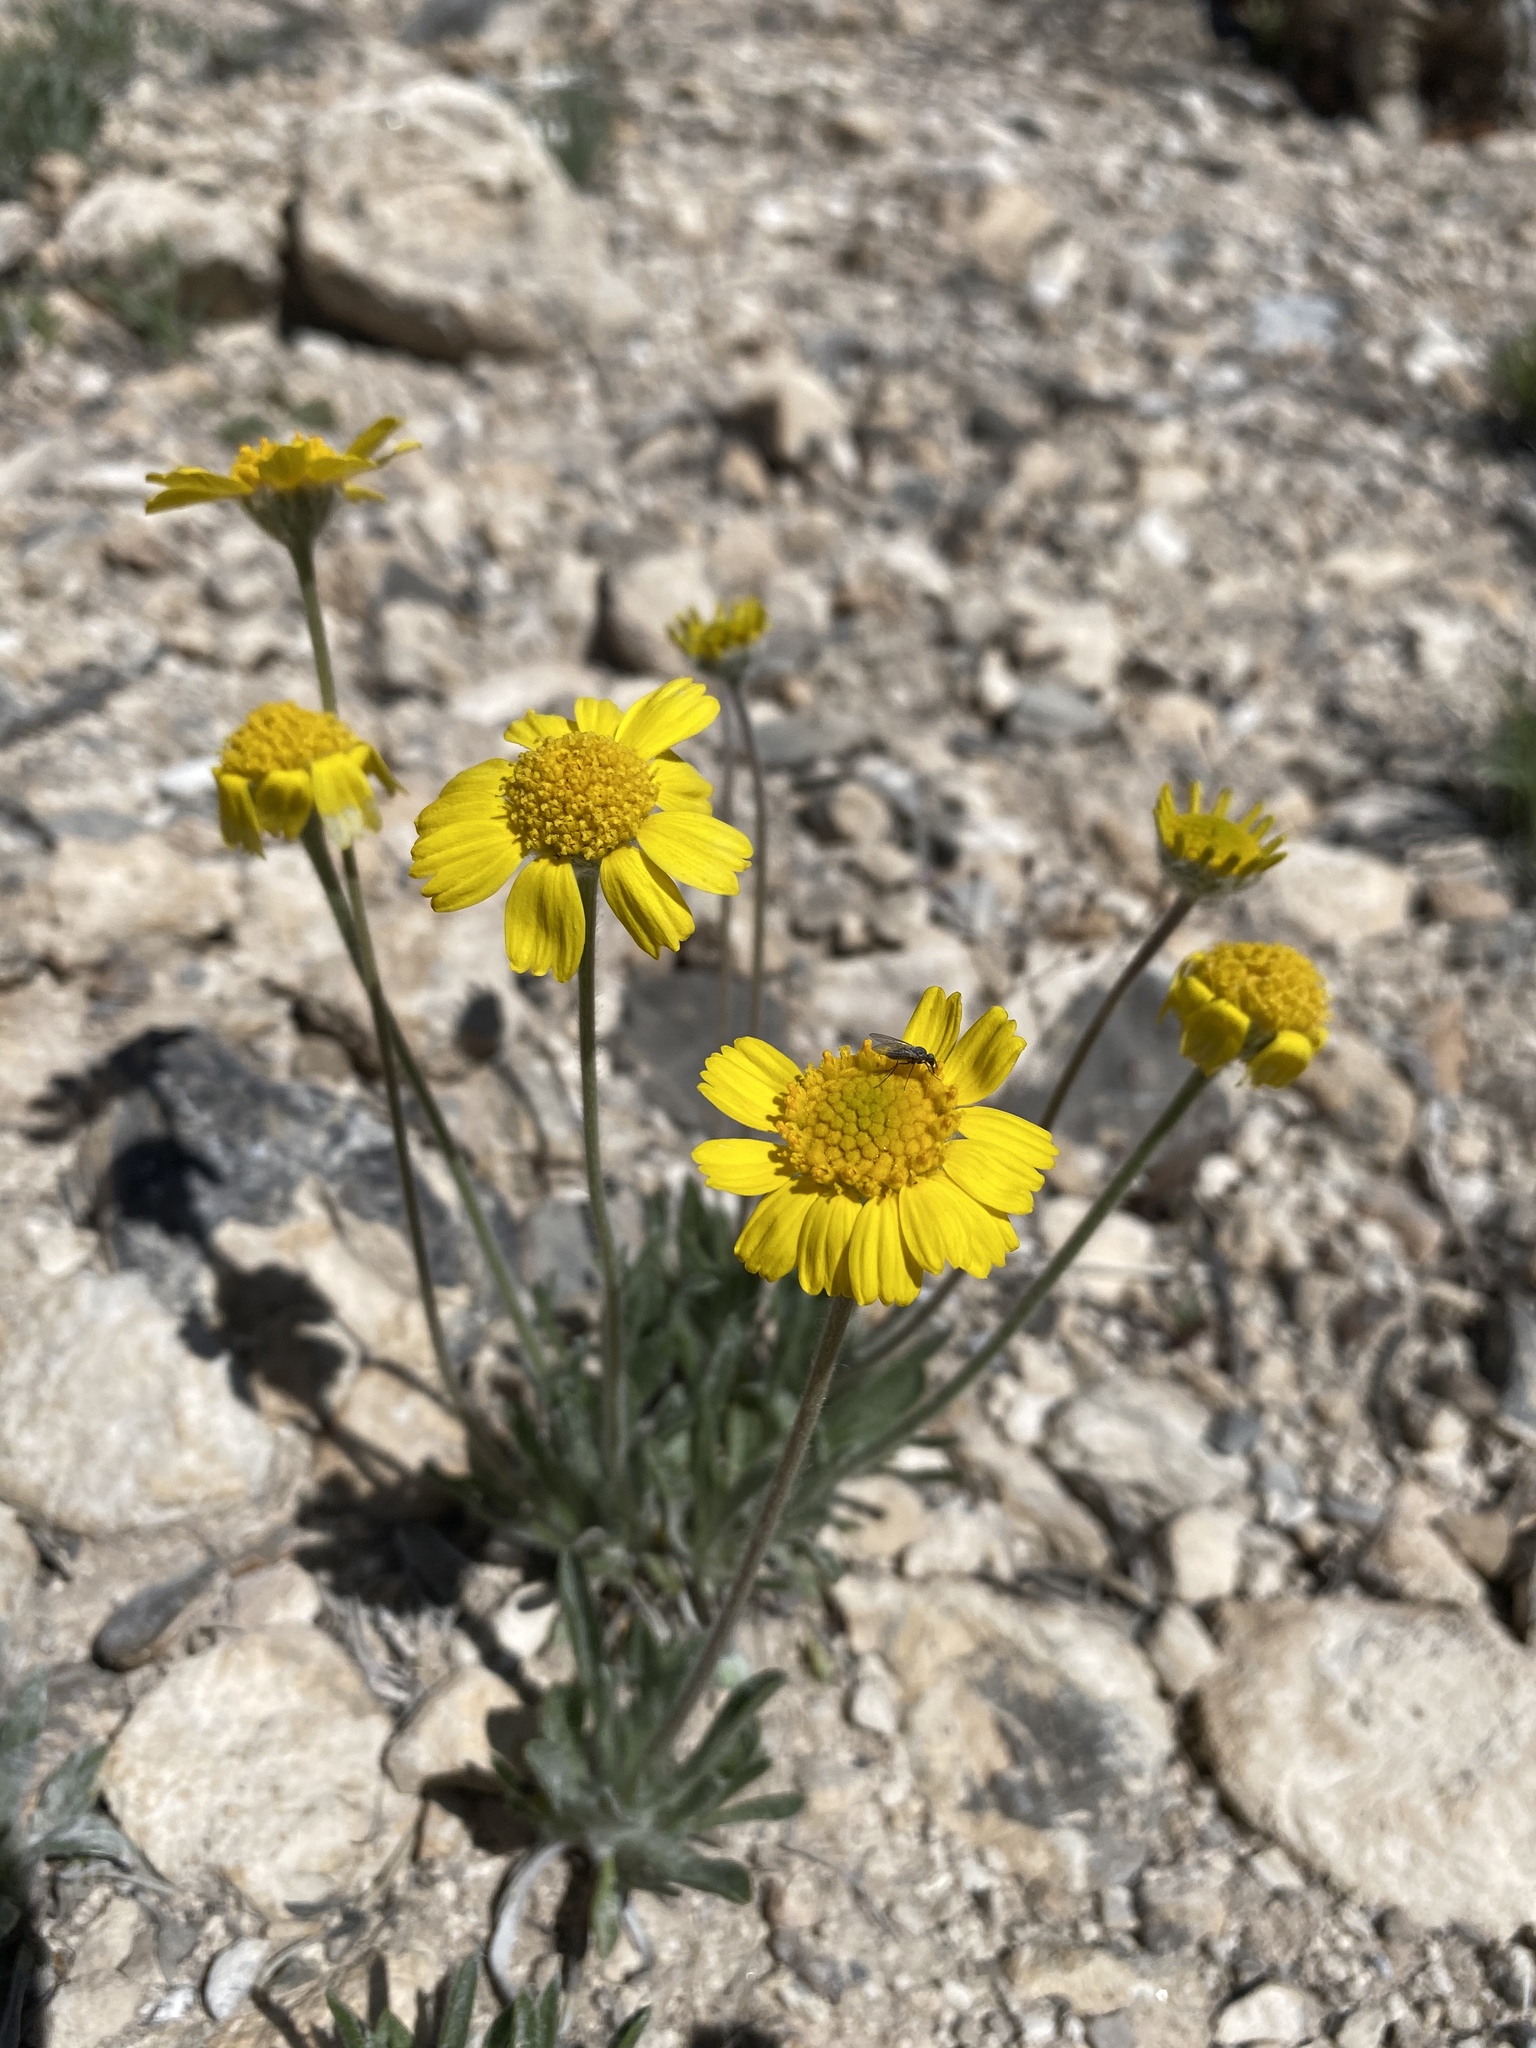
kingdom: Plantae
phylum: Tracheophyta
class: Magnoliopsida
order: Asterales
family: Asteraceae
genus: Tetraneuris
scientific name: Tetraneuris acaulis
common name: Butte marigold
